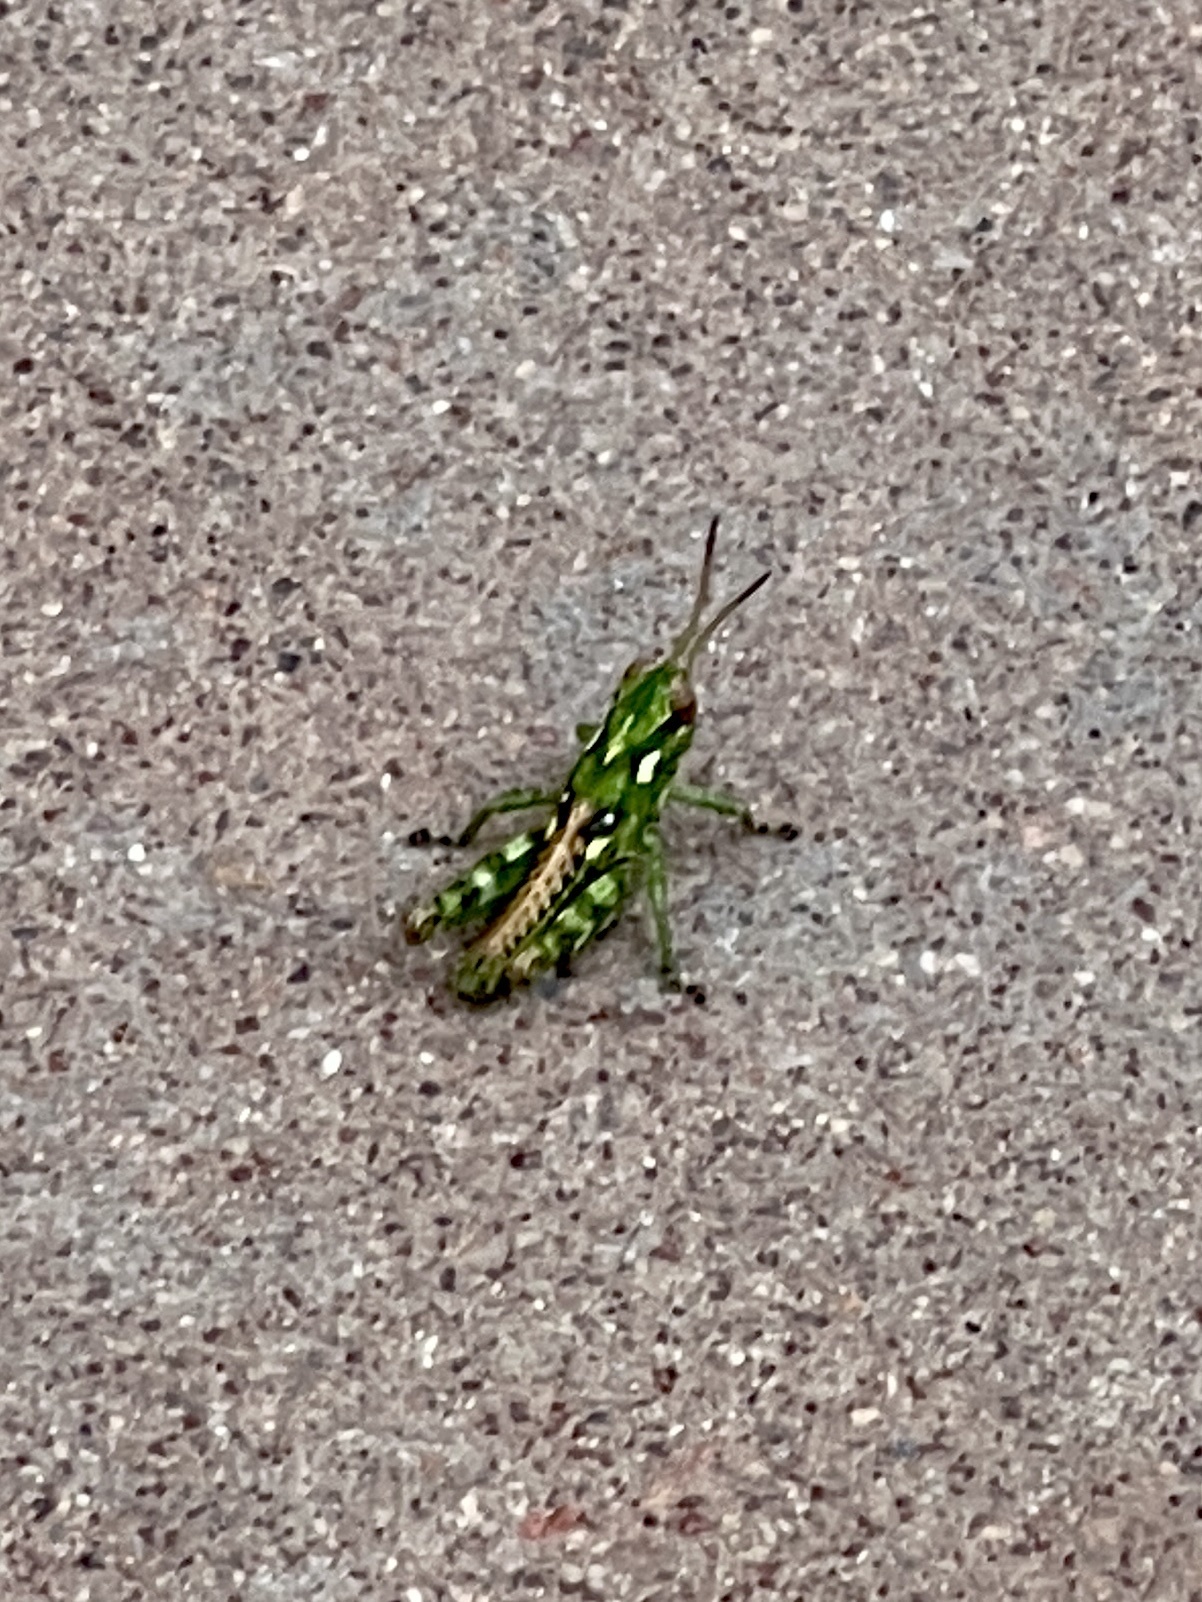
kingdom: Animalia
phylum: Arthropoda
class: Insecta
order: Orthoptera
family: Acrididae
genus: Melanoplus
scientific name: Melanoplus splendidus
